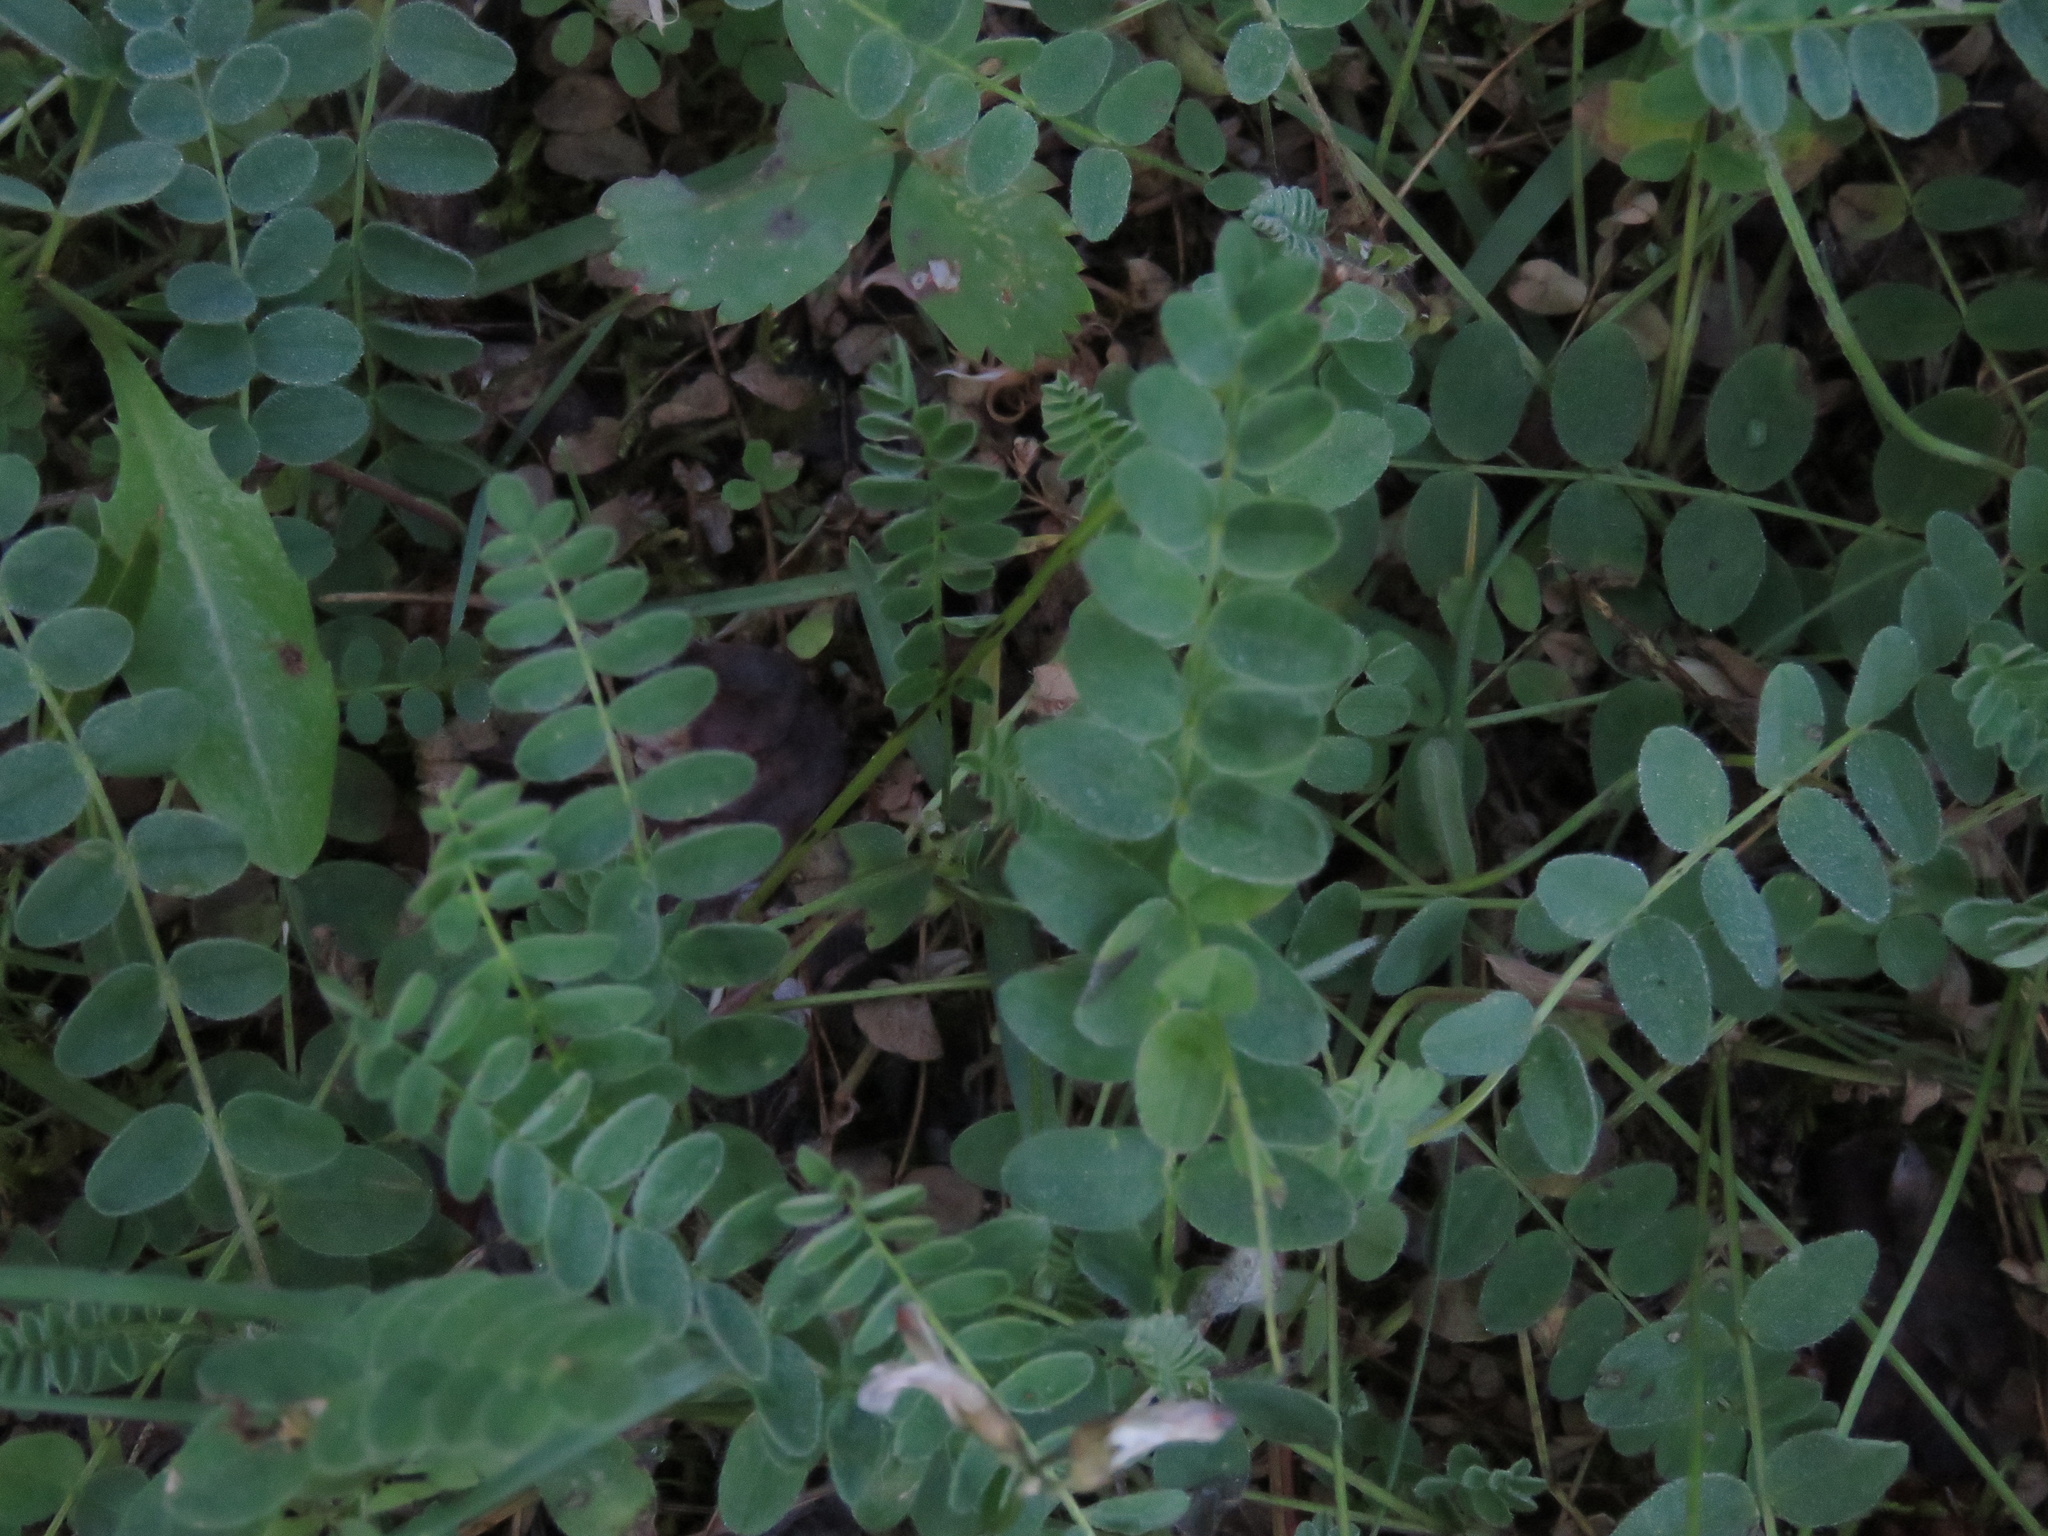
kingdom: Plantae
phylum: Tracheophyta
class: Magnoliopsida
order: Fabales
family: Fabaceae
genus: Astragalus
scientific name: Astragalus alpinus
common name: Alpine milk-vetch
